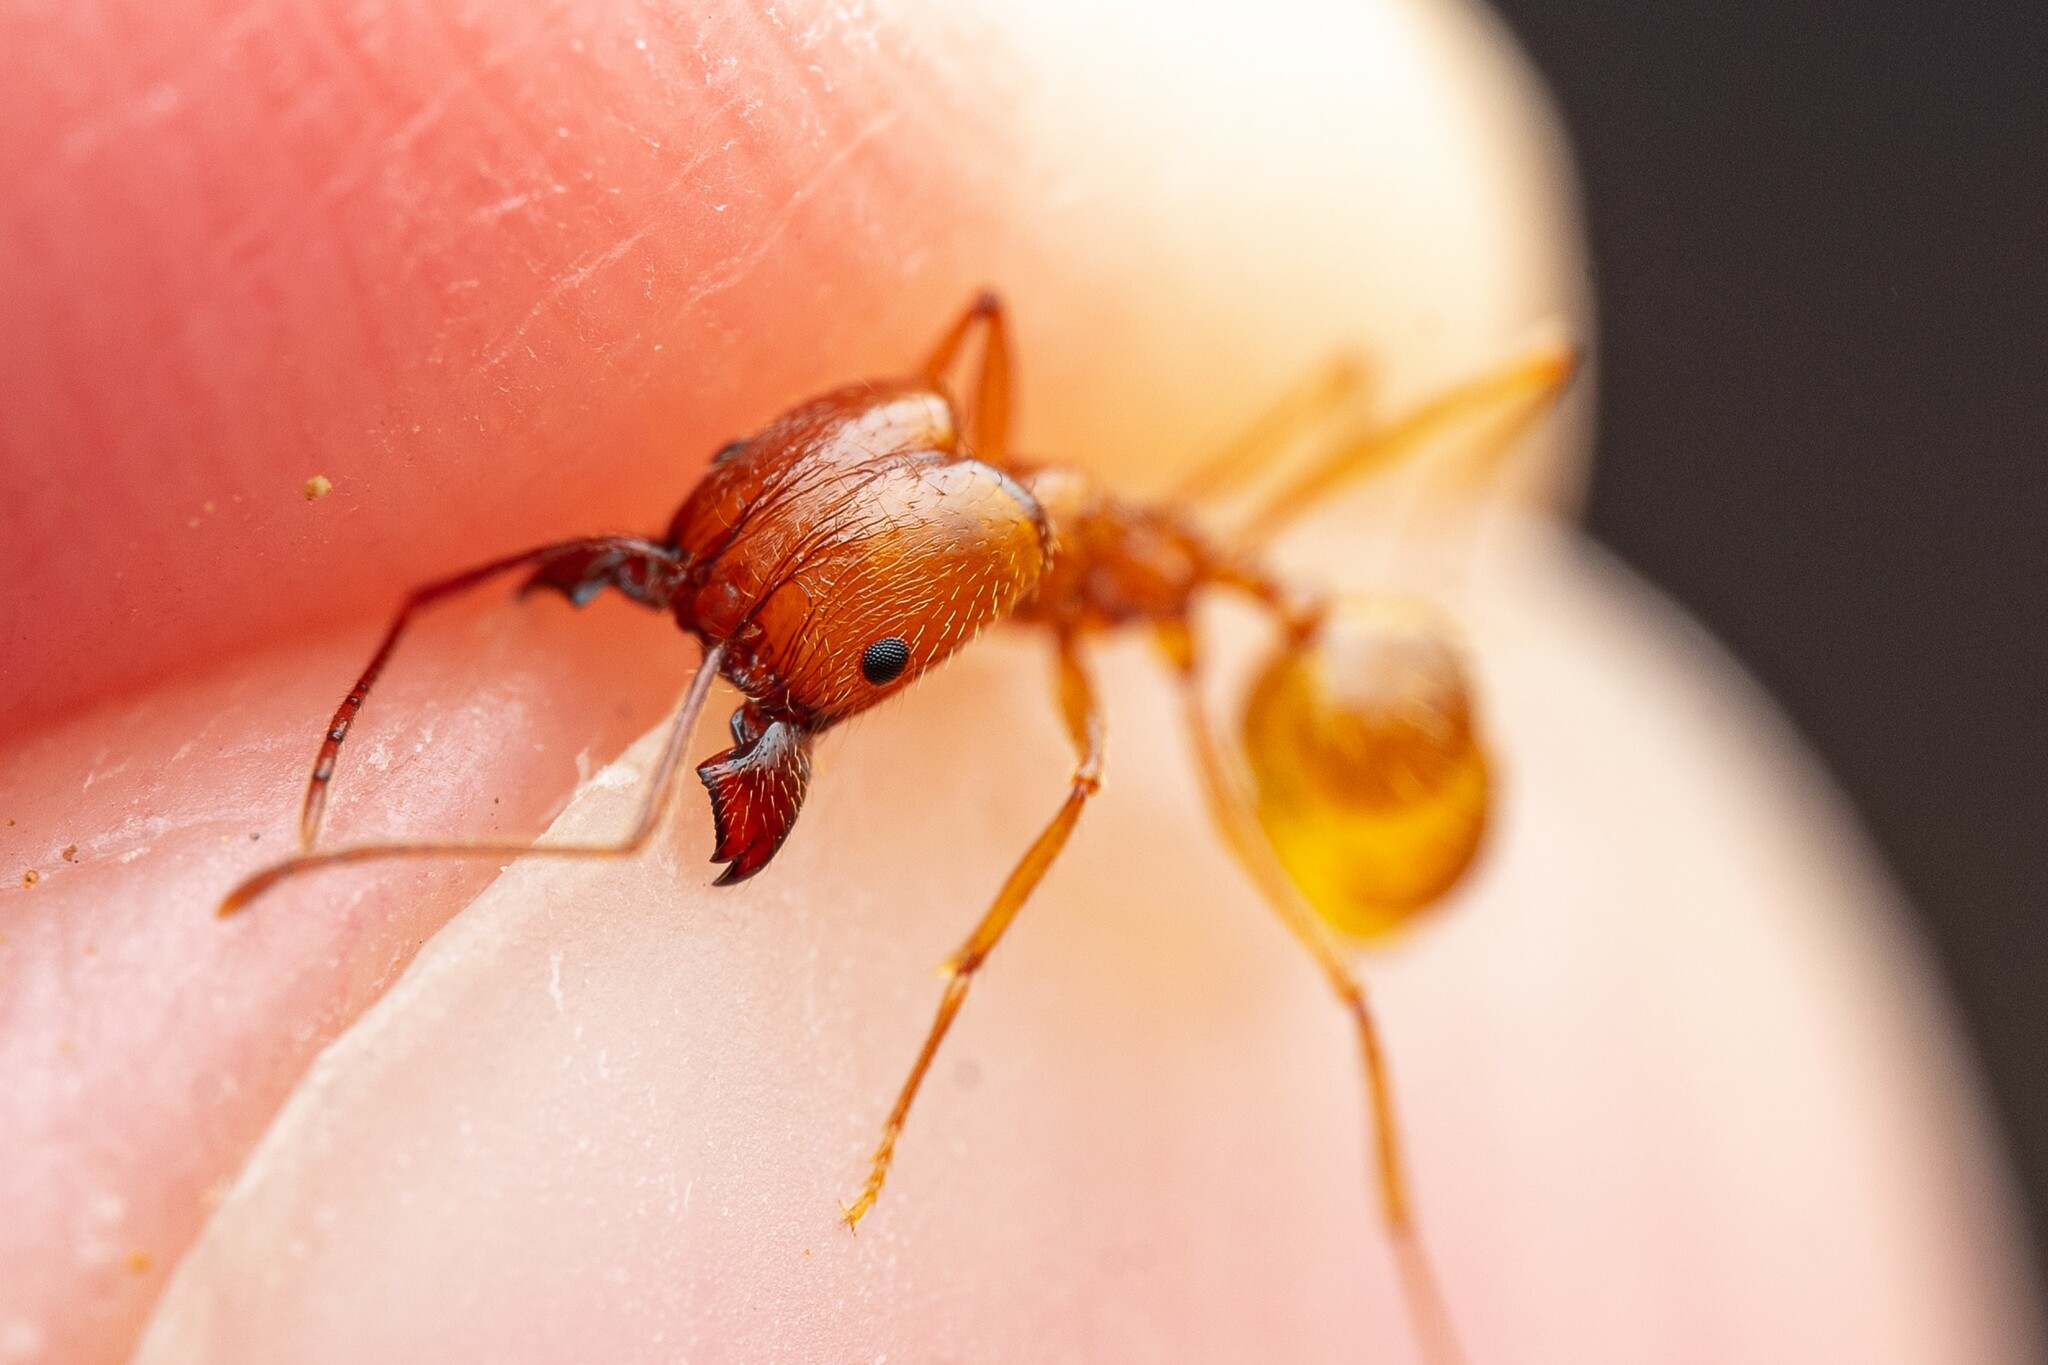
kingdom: Animalia
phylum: Arthropoda
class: Insecta
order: Hymenoptera
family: Formicidae
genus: Pheidole
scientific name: Pheidole desertorum
